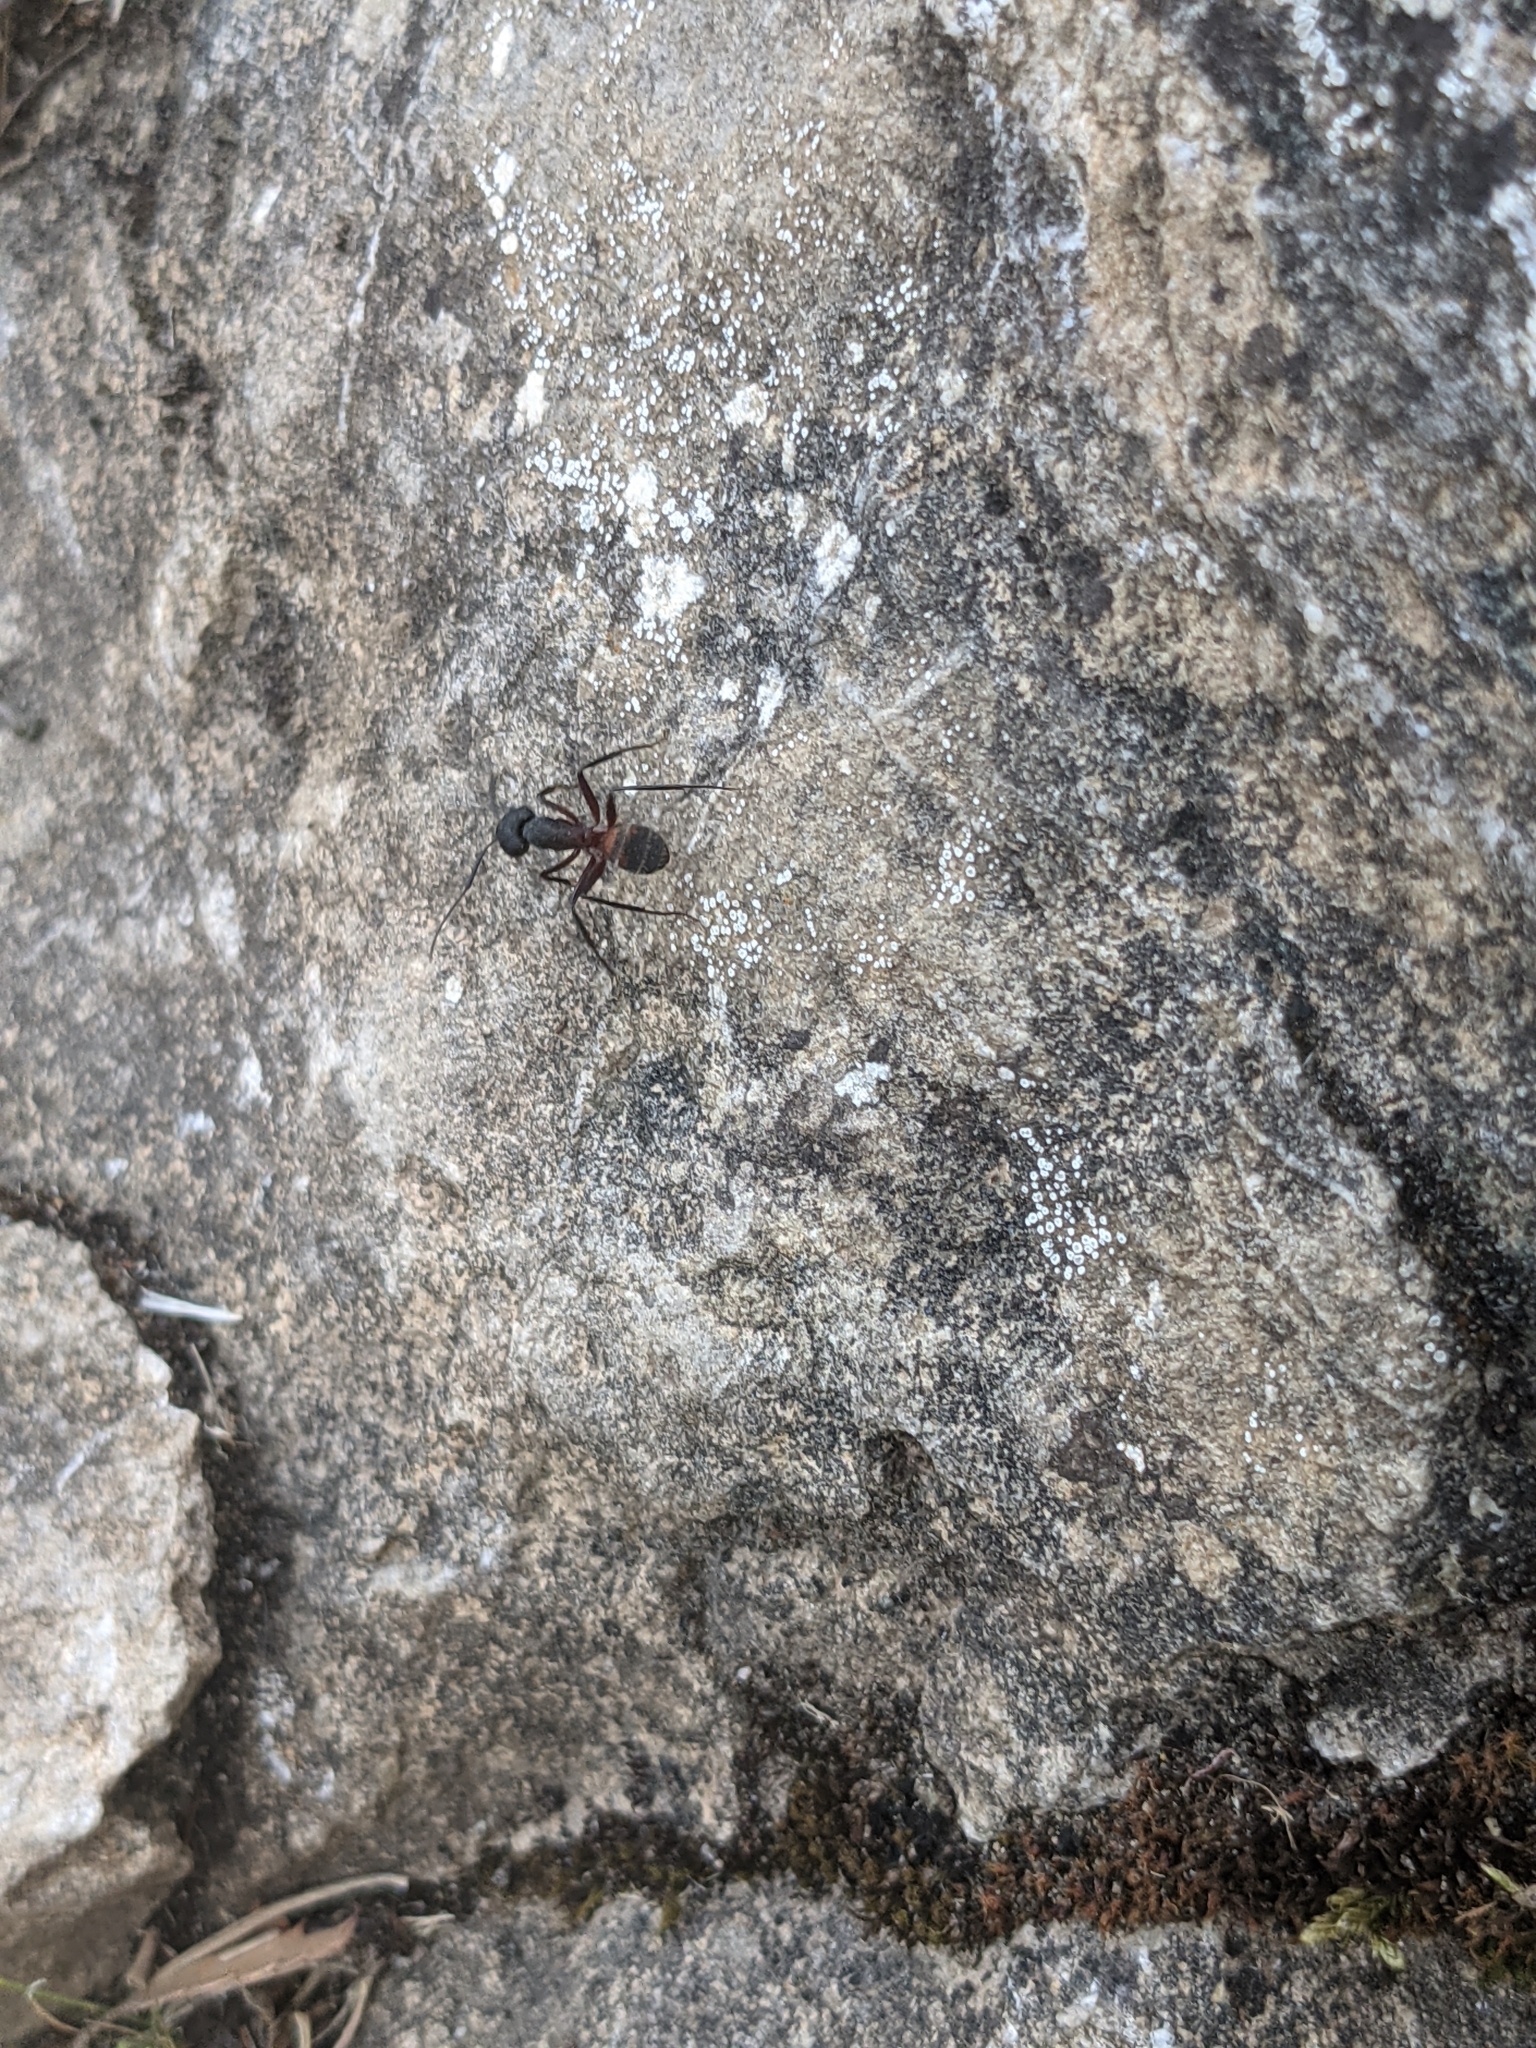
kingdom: Animalia
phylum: Arthropoda
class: Insecta
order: Hymenoptera
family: Formicidae
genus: Camponotus
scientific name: Camponotus cruentatus
